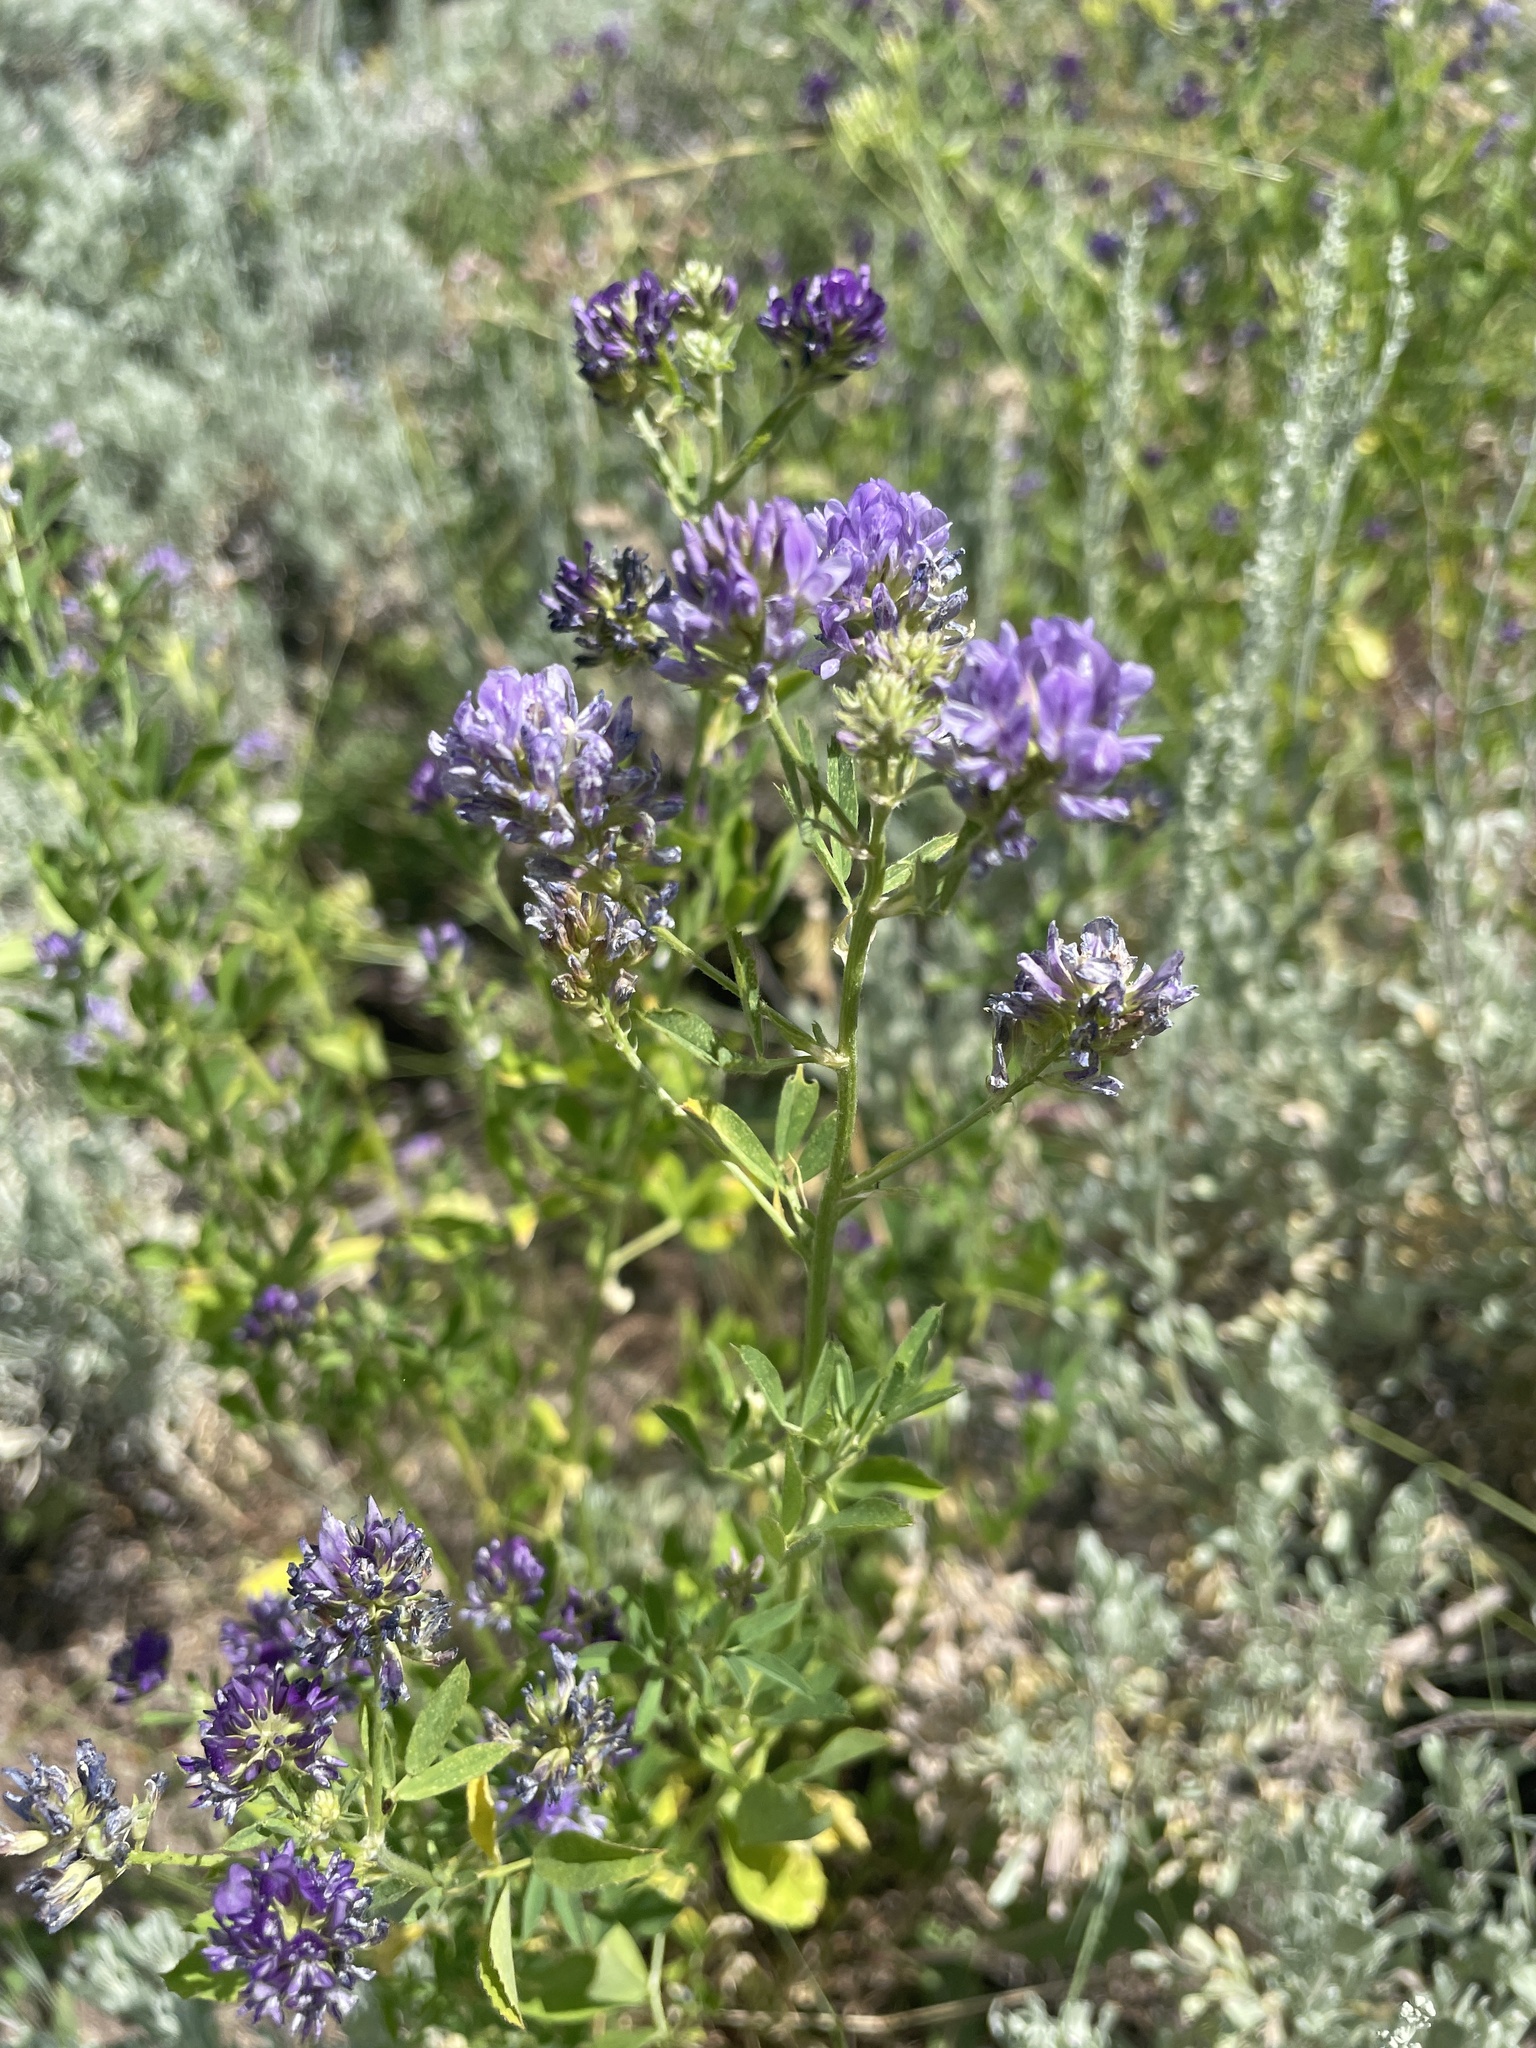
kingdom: Plantae
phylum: Tracheophyta
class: Magnoliopsida
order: Fabales
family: Fabaceae
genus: Medicago
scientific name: Medicago sativa
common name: Alfalfa
